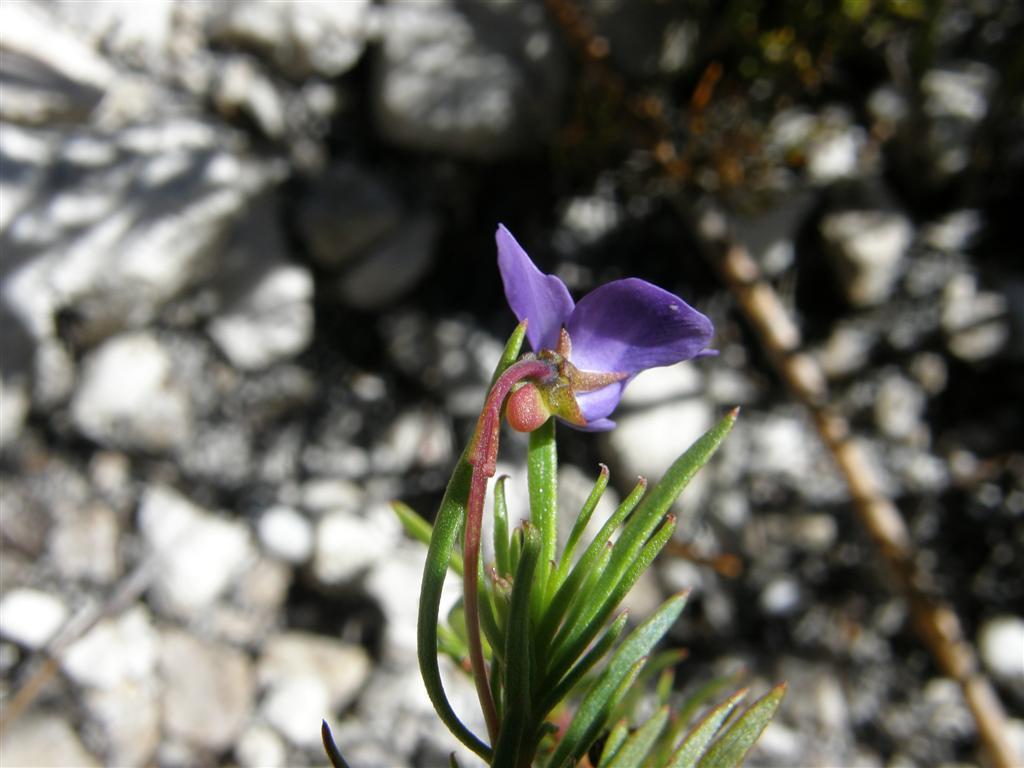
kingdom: Plantae
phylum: Tracheophyta
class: Magnoliopsida
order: Malpighiales
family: Violaceae
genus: Viola
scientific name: Viola decumbens
